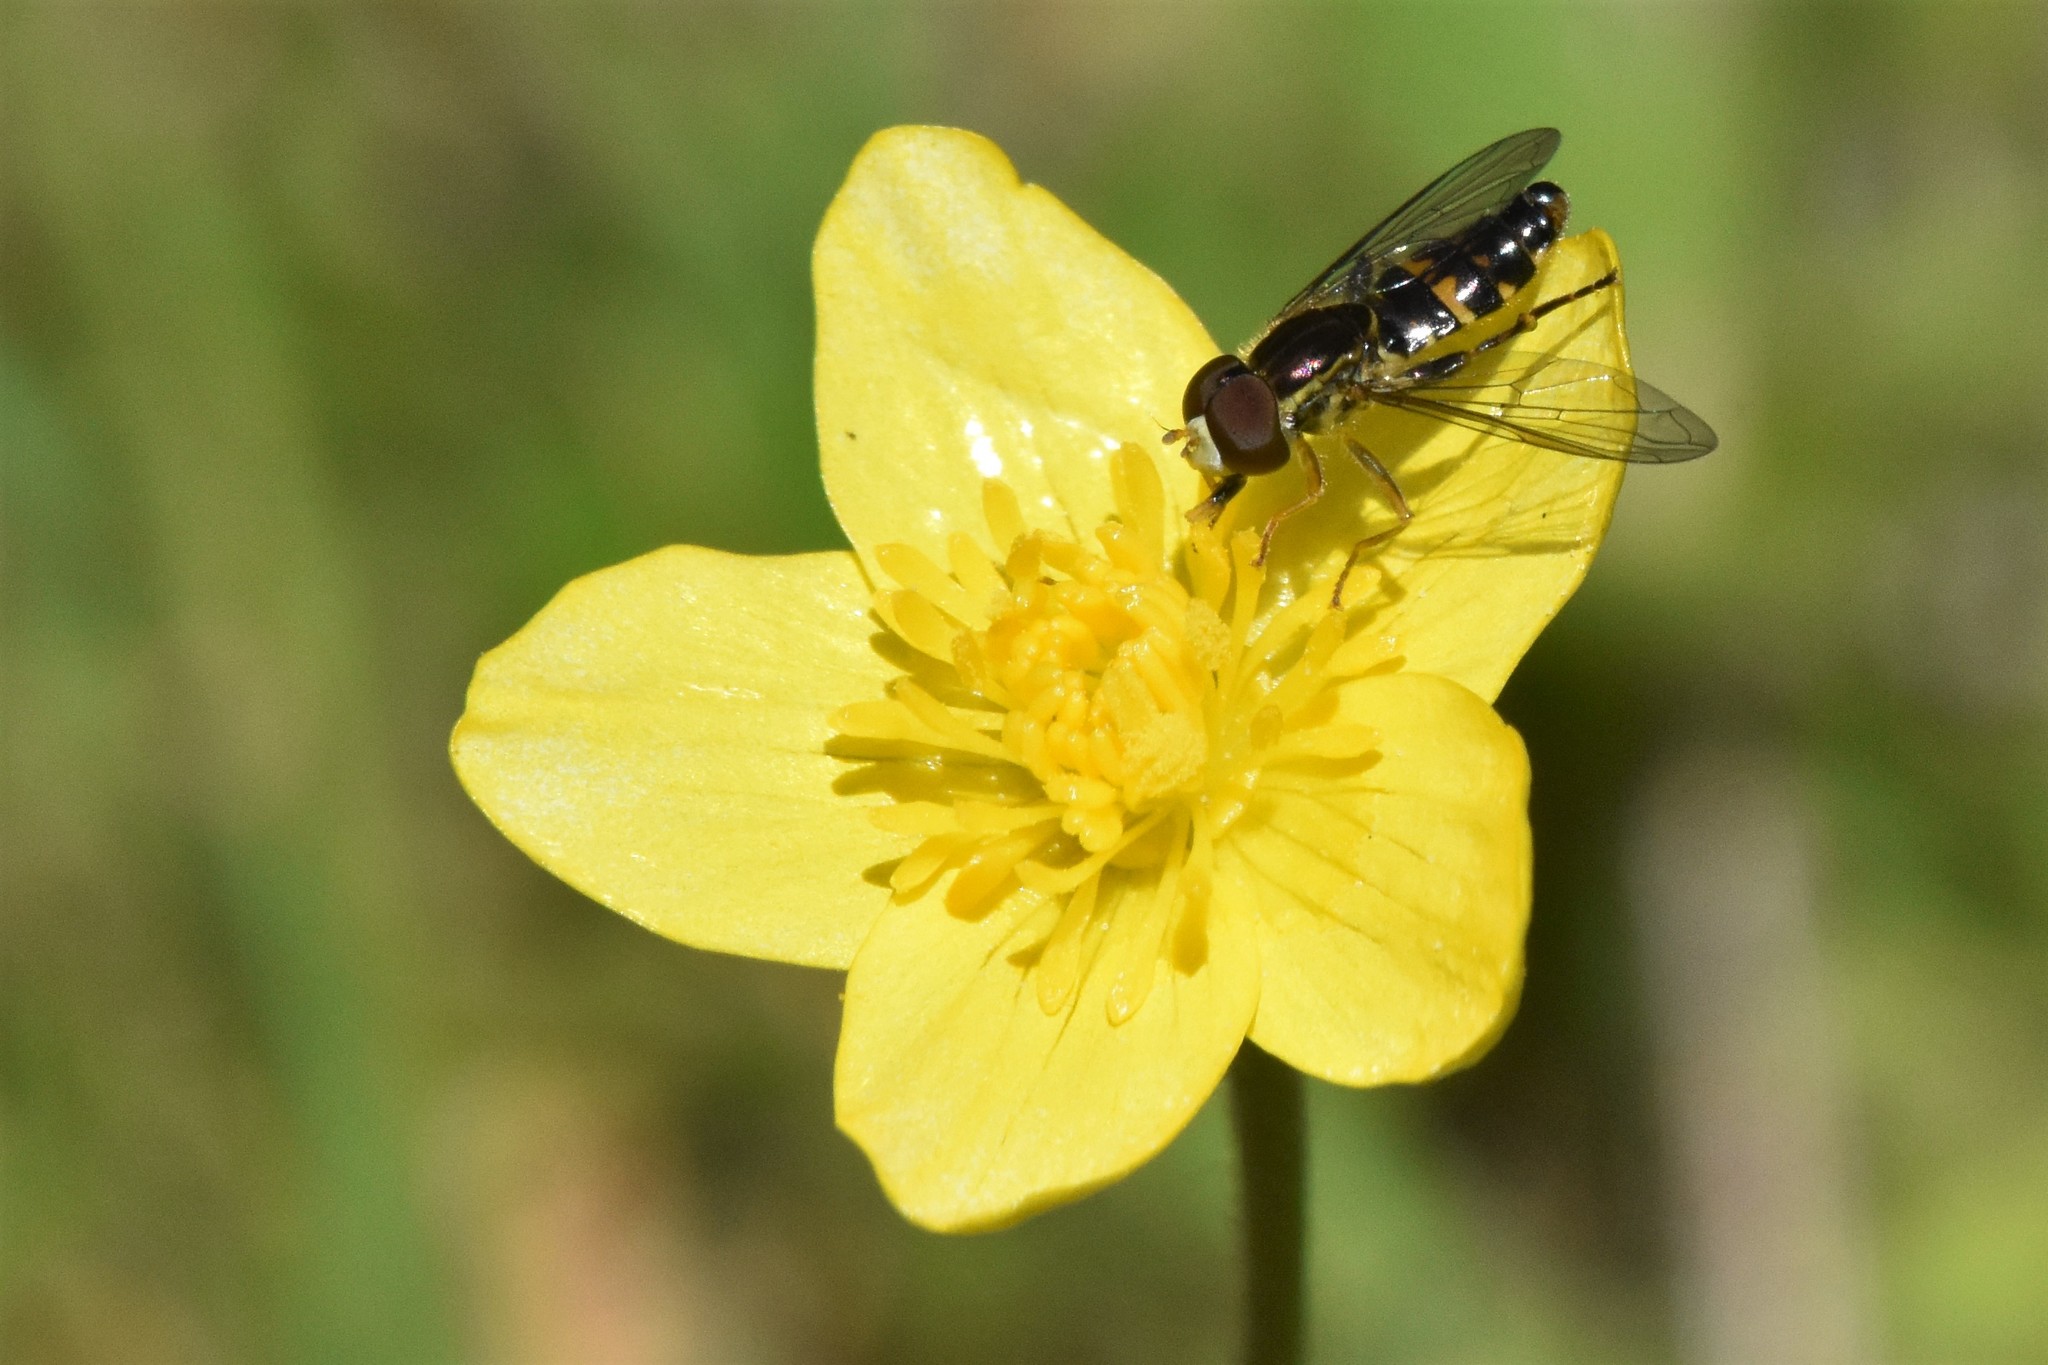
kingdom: Animalia
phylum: Arthropoda
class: Insecta
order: Diptera
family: Syrphidae
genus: Toxomerus
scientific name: Toxomerus occidentalis
